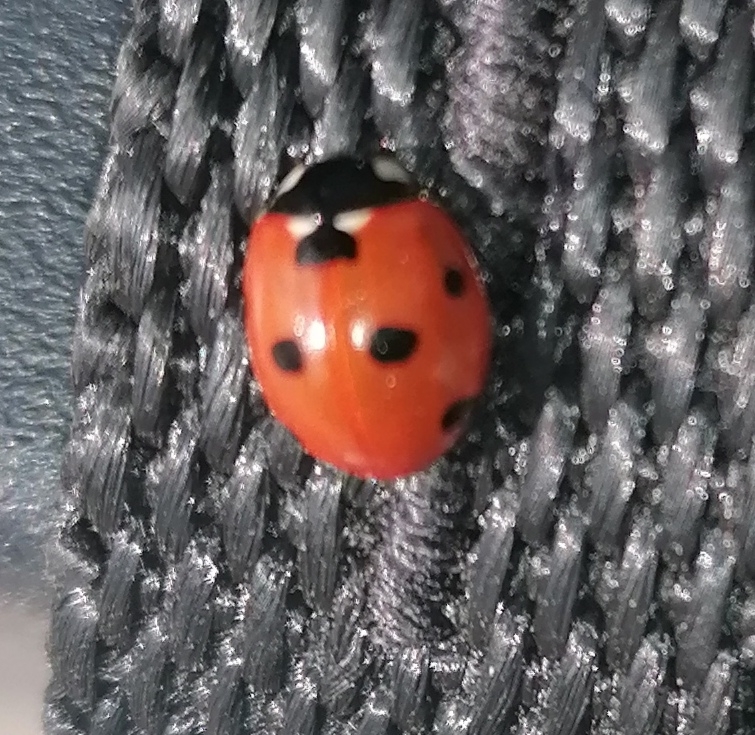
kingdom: Animalia
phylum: Arthropoda
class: Insecta
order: Coleoptera
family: Coccinellidae
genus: Coccinella
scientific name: Coccinella septempunctata
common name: Sevenspotted lady beetle
